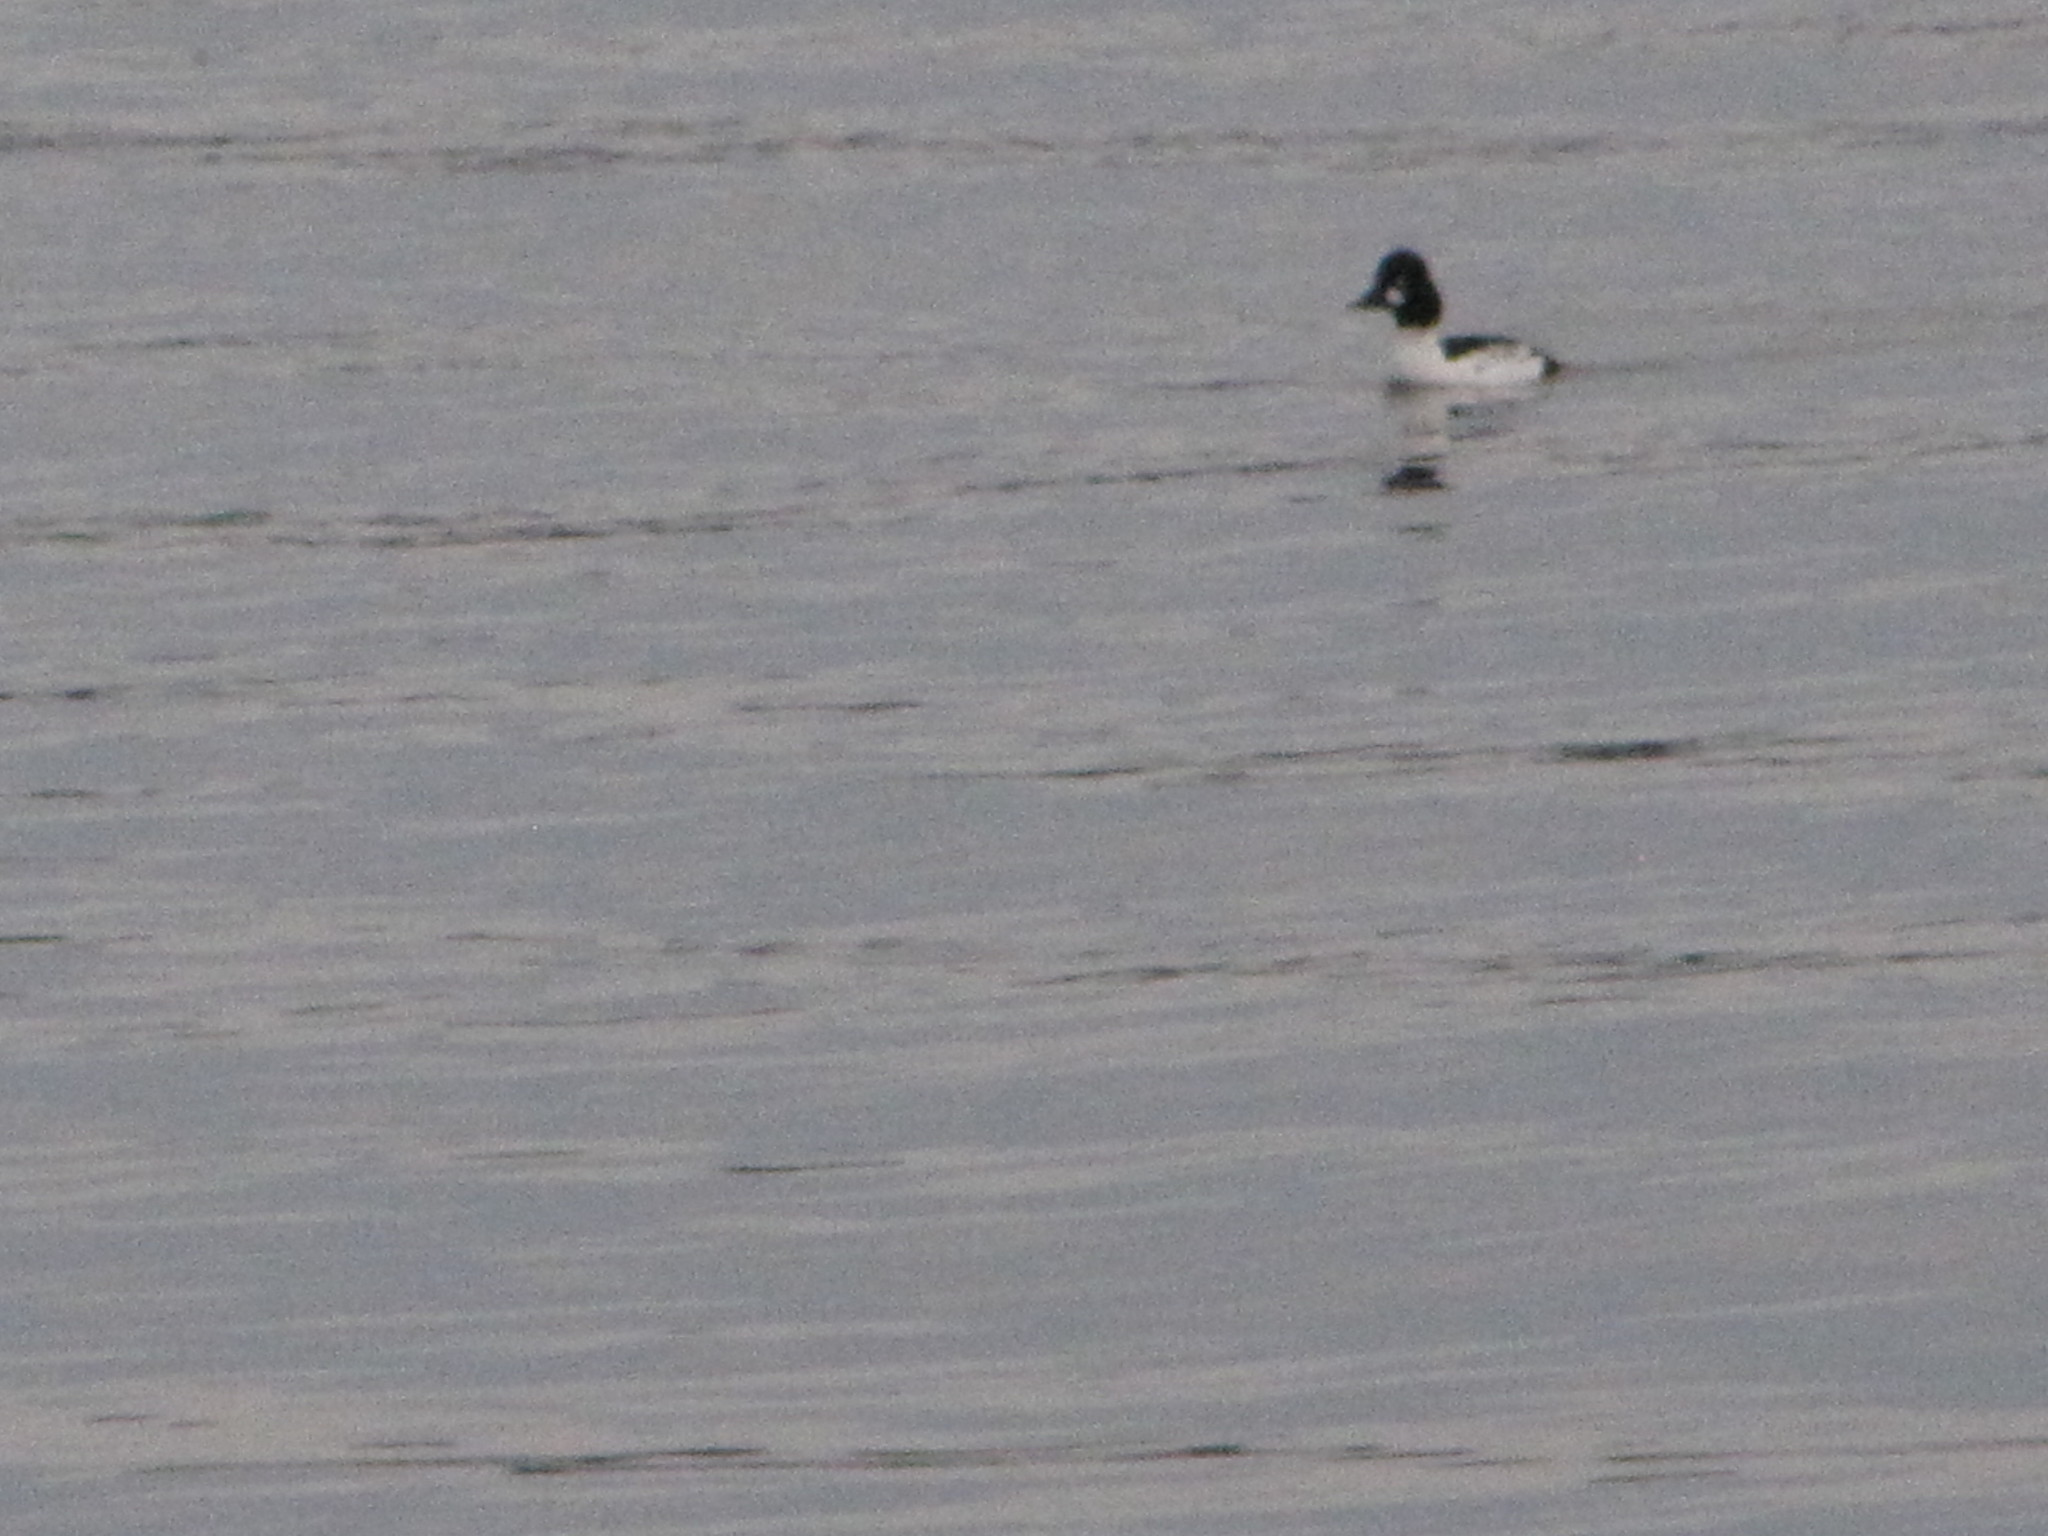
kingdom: Animalia
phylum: Chordata
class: Aves
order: Anseriformes
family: Anatidae
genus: Bucephala
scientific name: Bucephala clangula
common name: Common goldeneye
